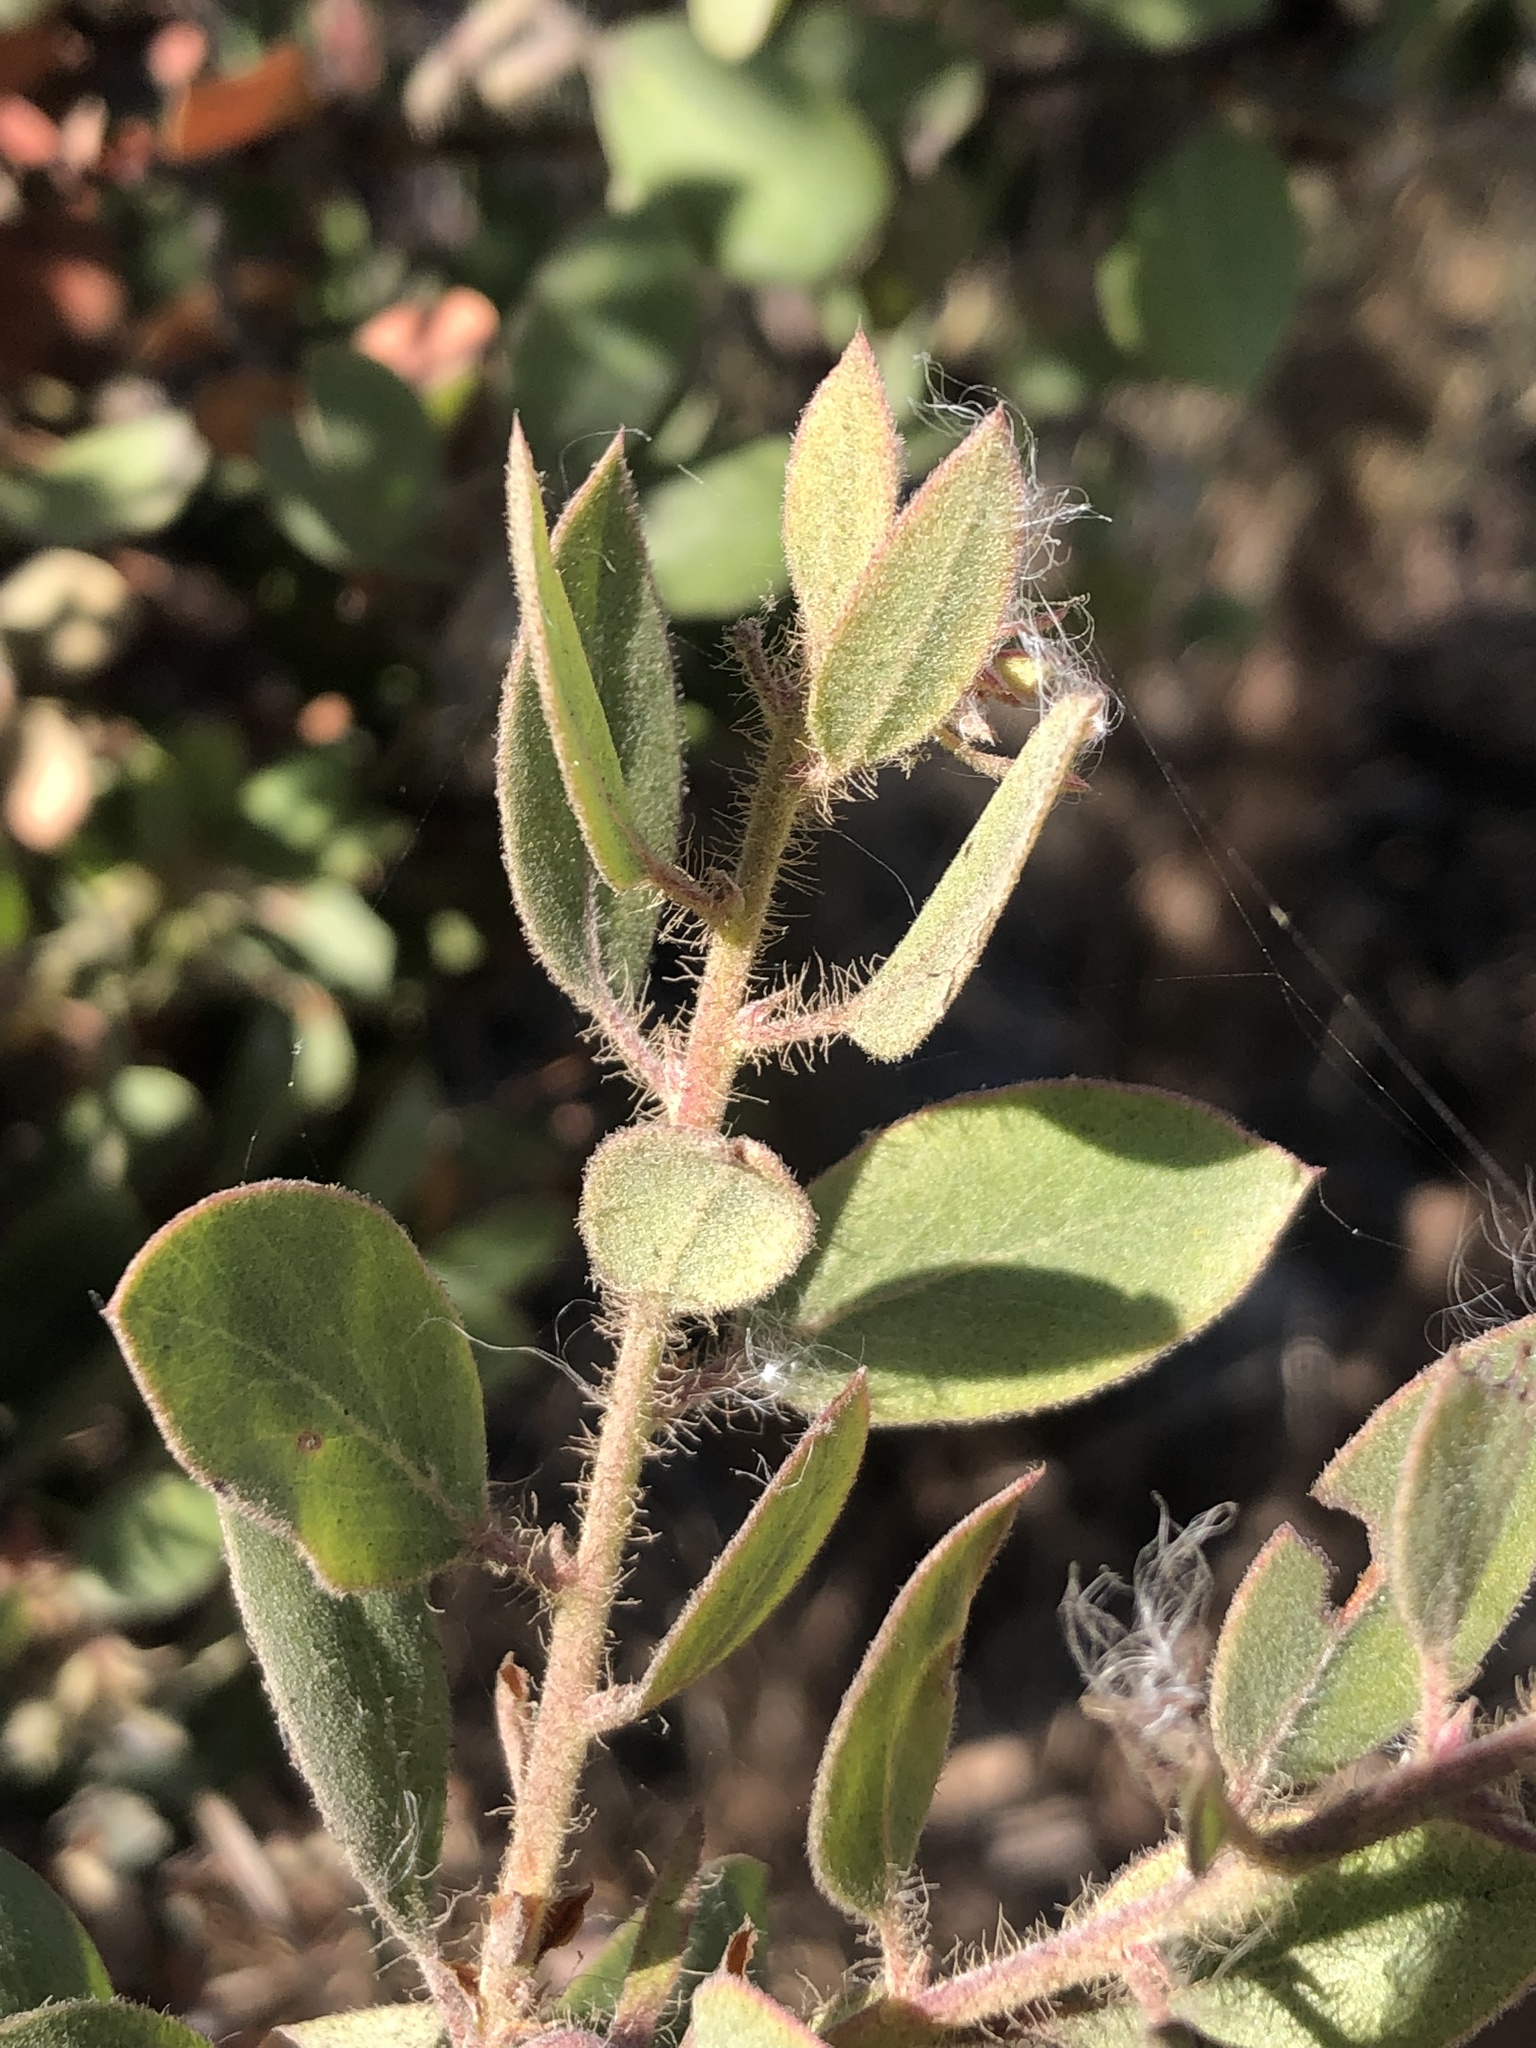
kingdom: Plantae
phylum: Tracheophyta
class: Magnoliopsida
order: Ericales
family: Ericaceae
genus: Arctostaphylos
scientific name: Arctostaphylos pilosula
